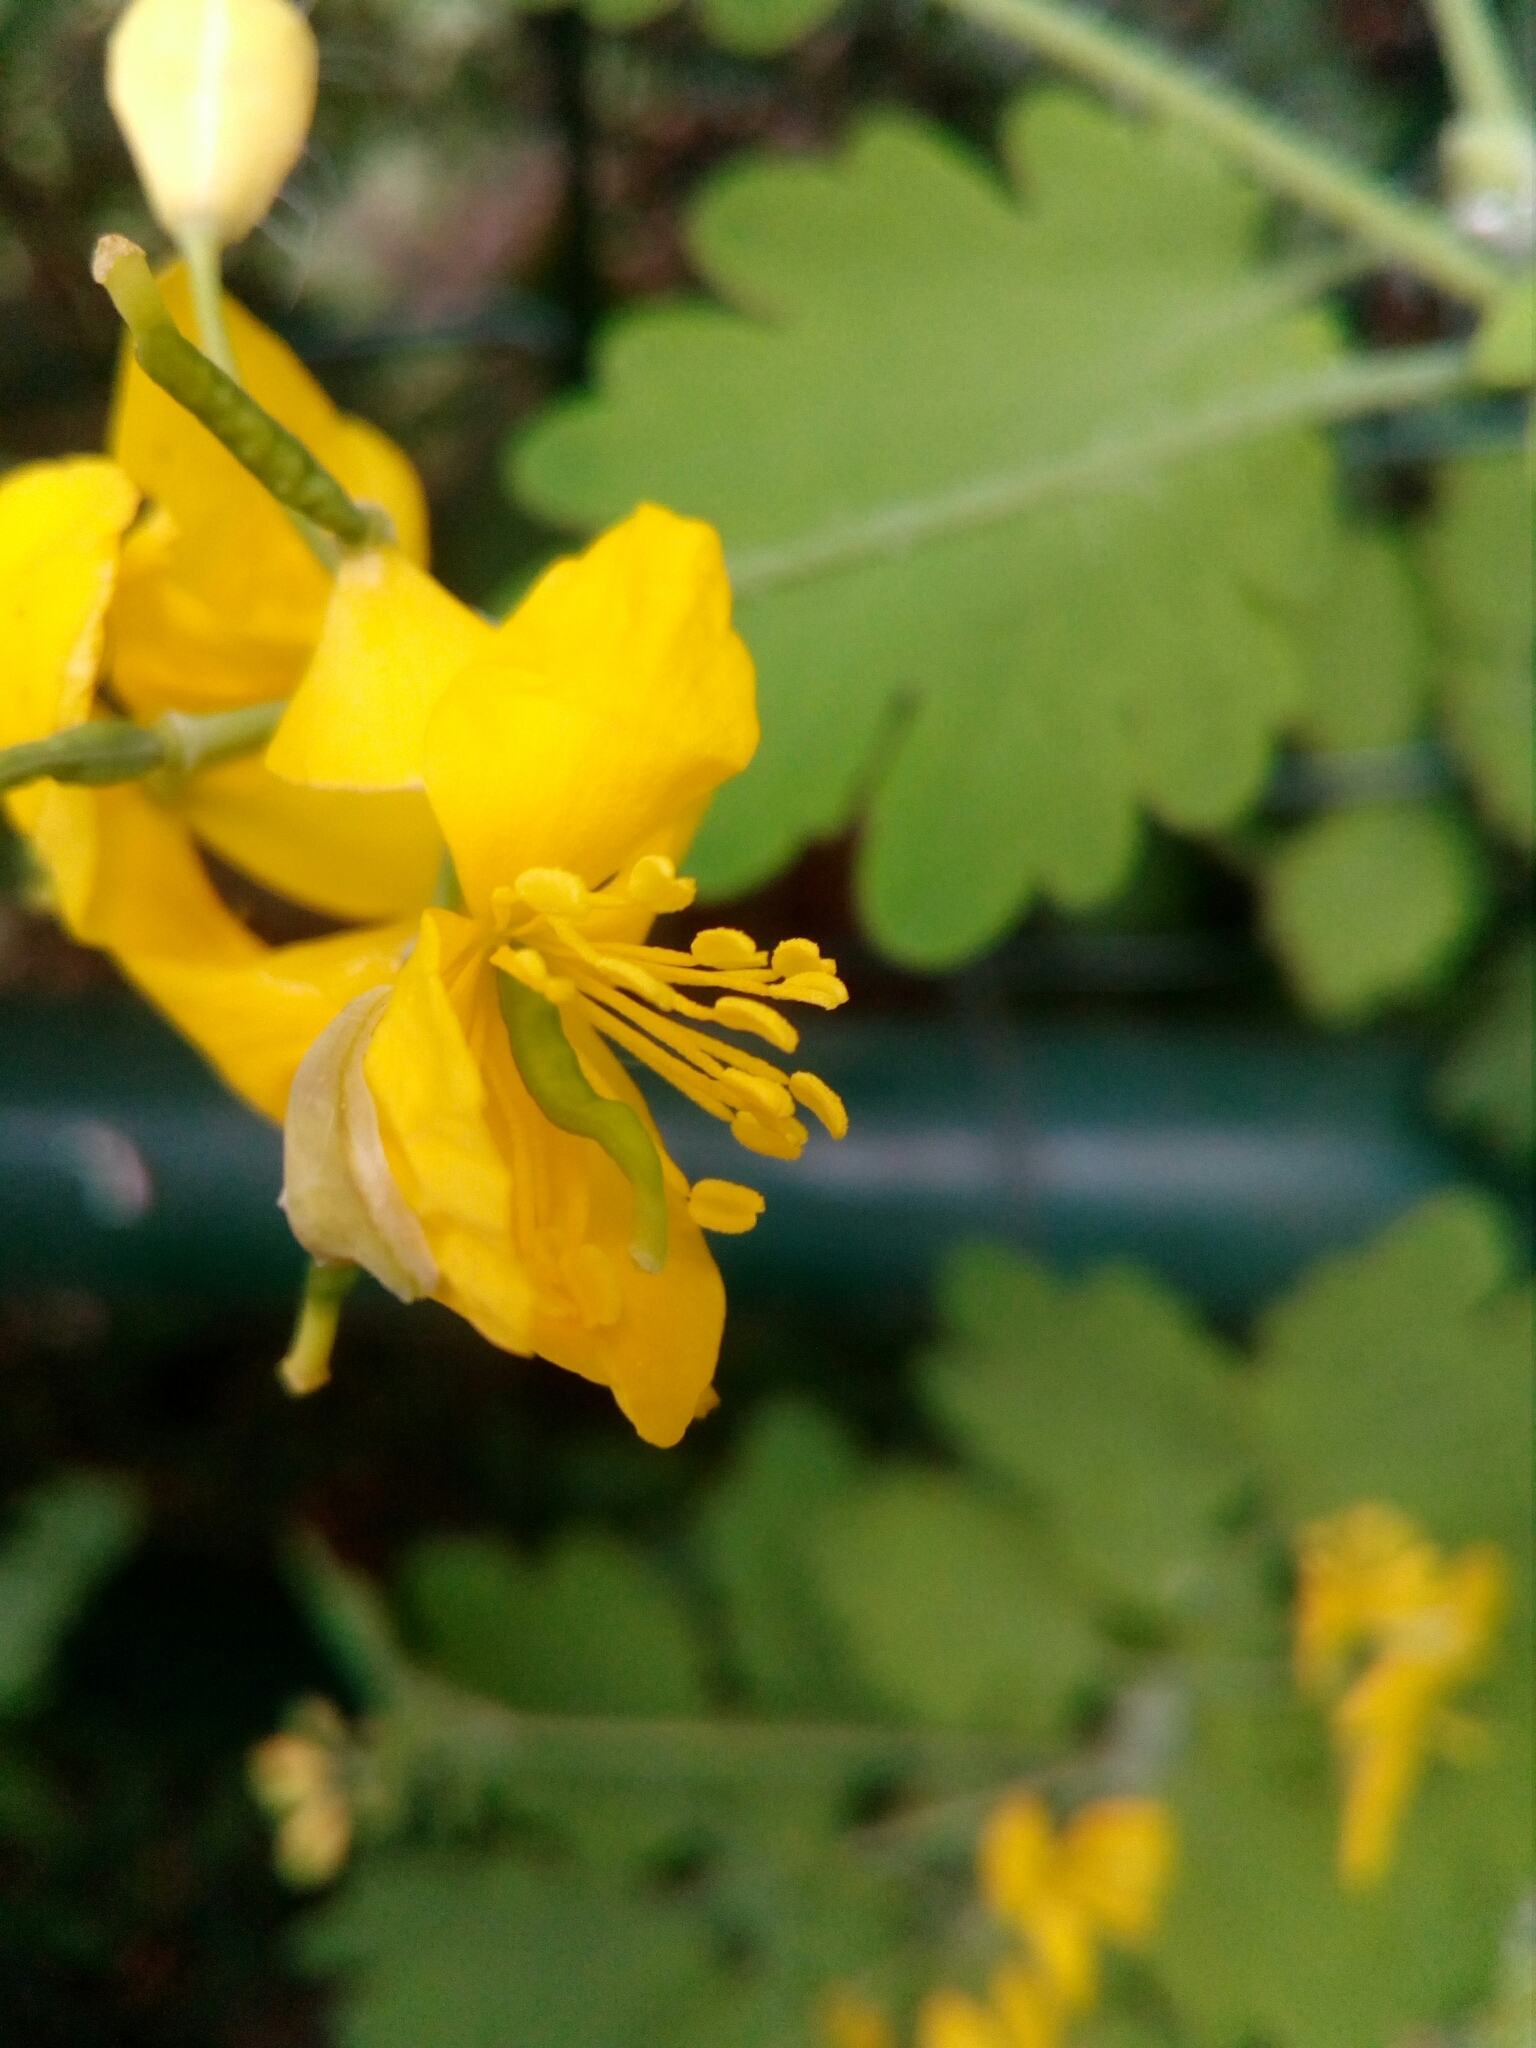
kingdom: Plantae
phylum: Tracheophyta
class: Magnoliopsida
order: Ranunculales
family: Papaveraceae
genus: Chelidonium
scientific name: Chelidonium majus
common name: Greater celandine
